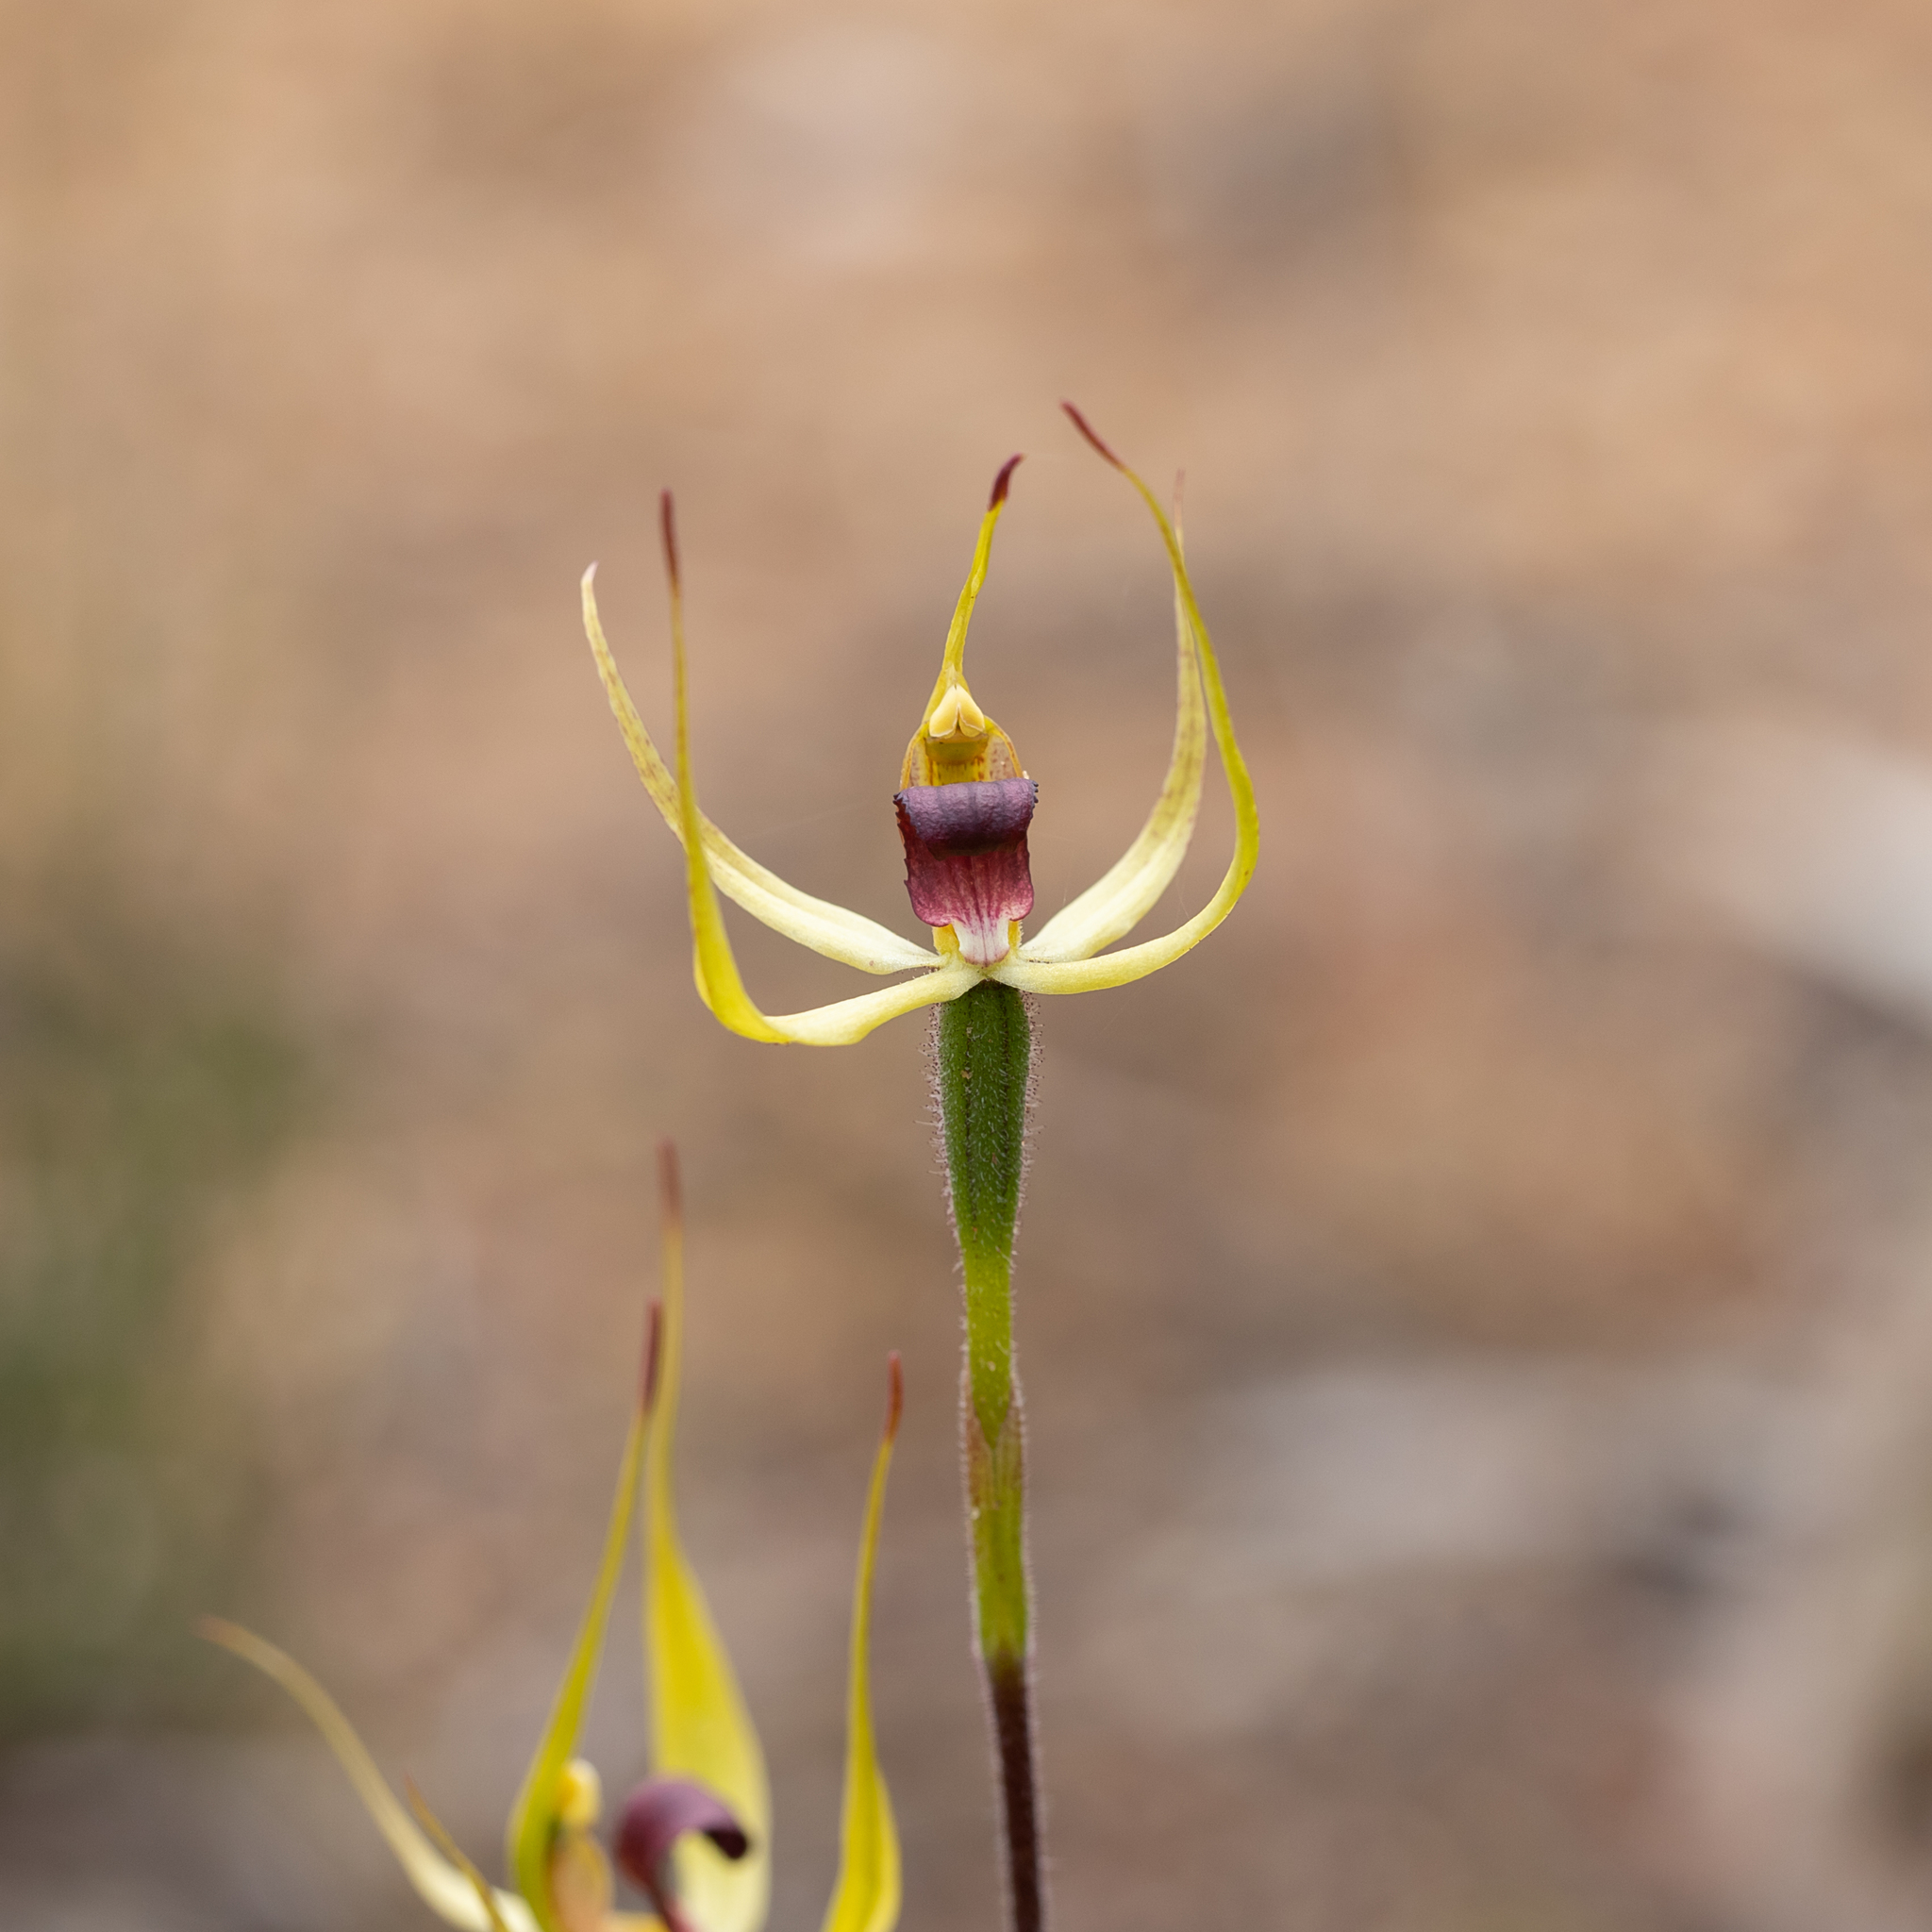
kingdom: Plantae
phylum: Tracheophyta
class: Liliopsida
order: Asparagales
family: Orchidaceae
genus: Caladenia
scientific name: Caladenia leptochila
